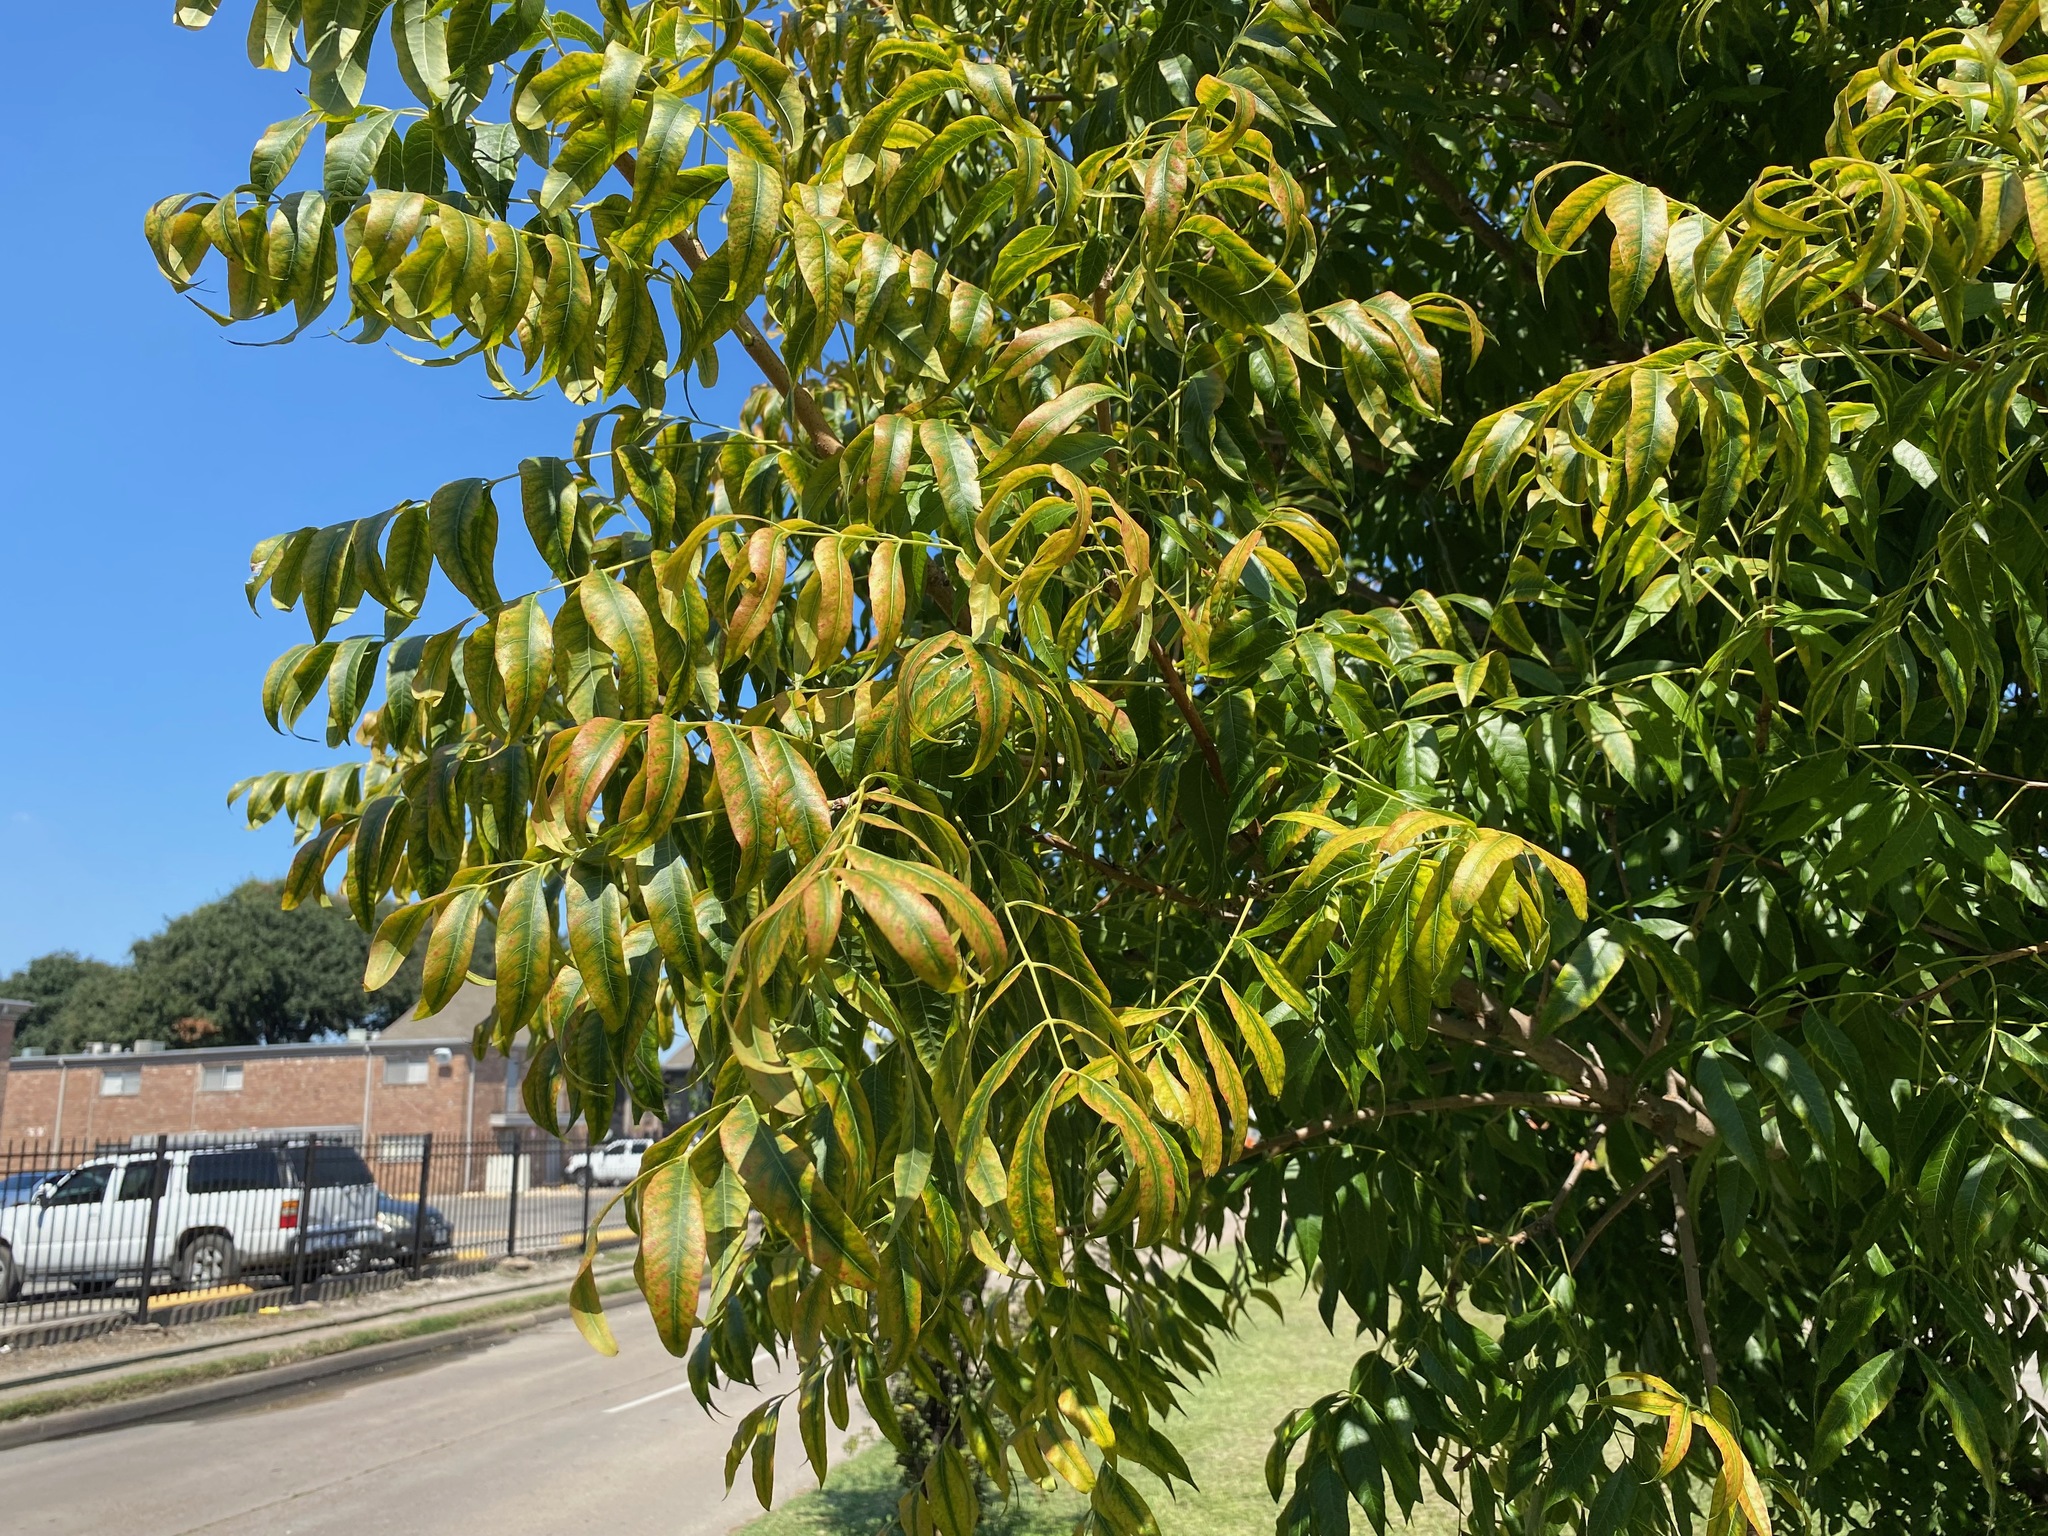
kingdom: Plantae
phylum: Tracheophyta
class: Magnoliopsida
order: Sapindales
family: Anacardiaceae
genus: Pistacia
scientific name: Pistacia chinensis
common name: Chinese pistache
